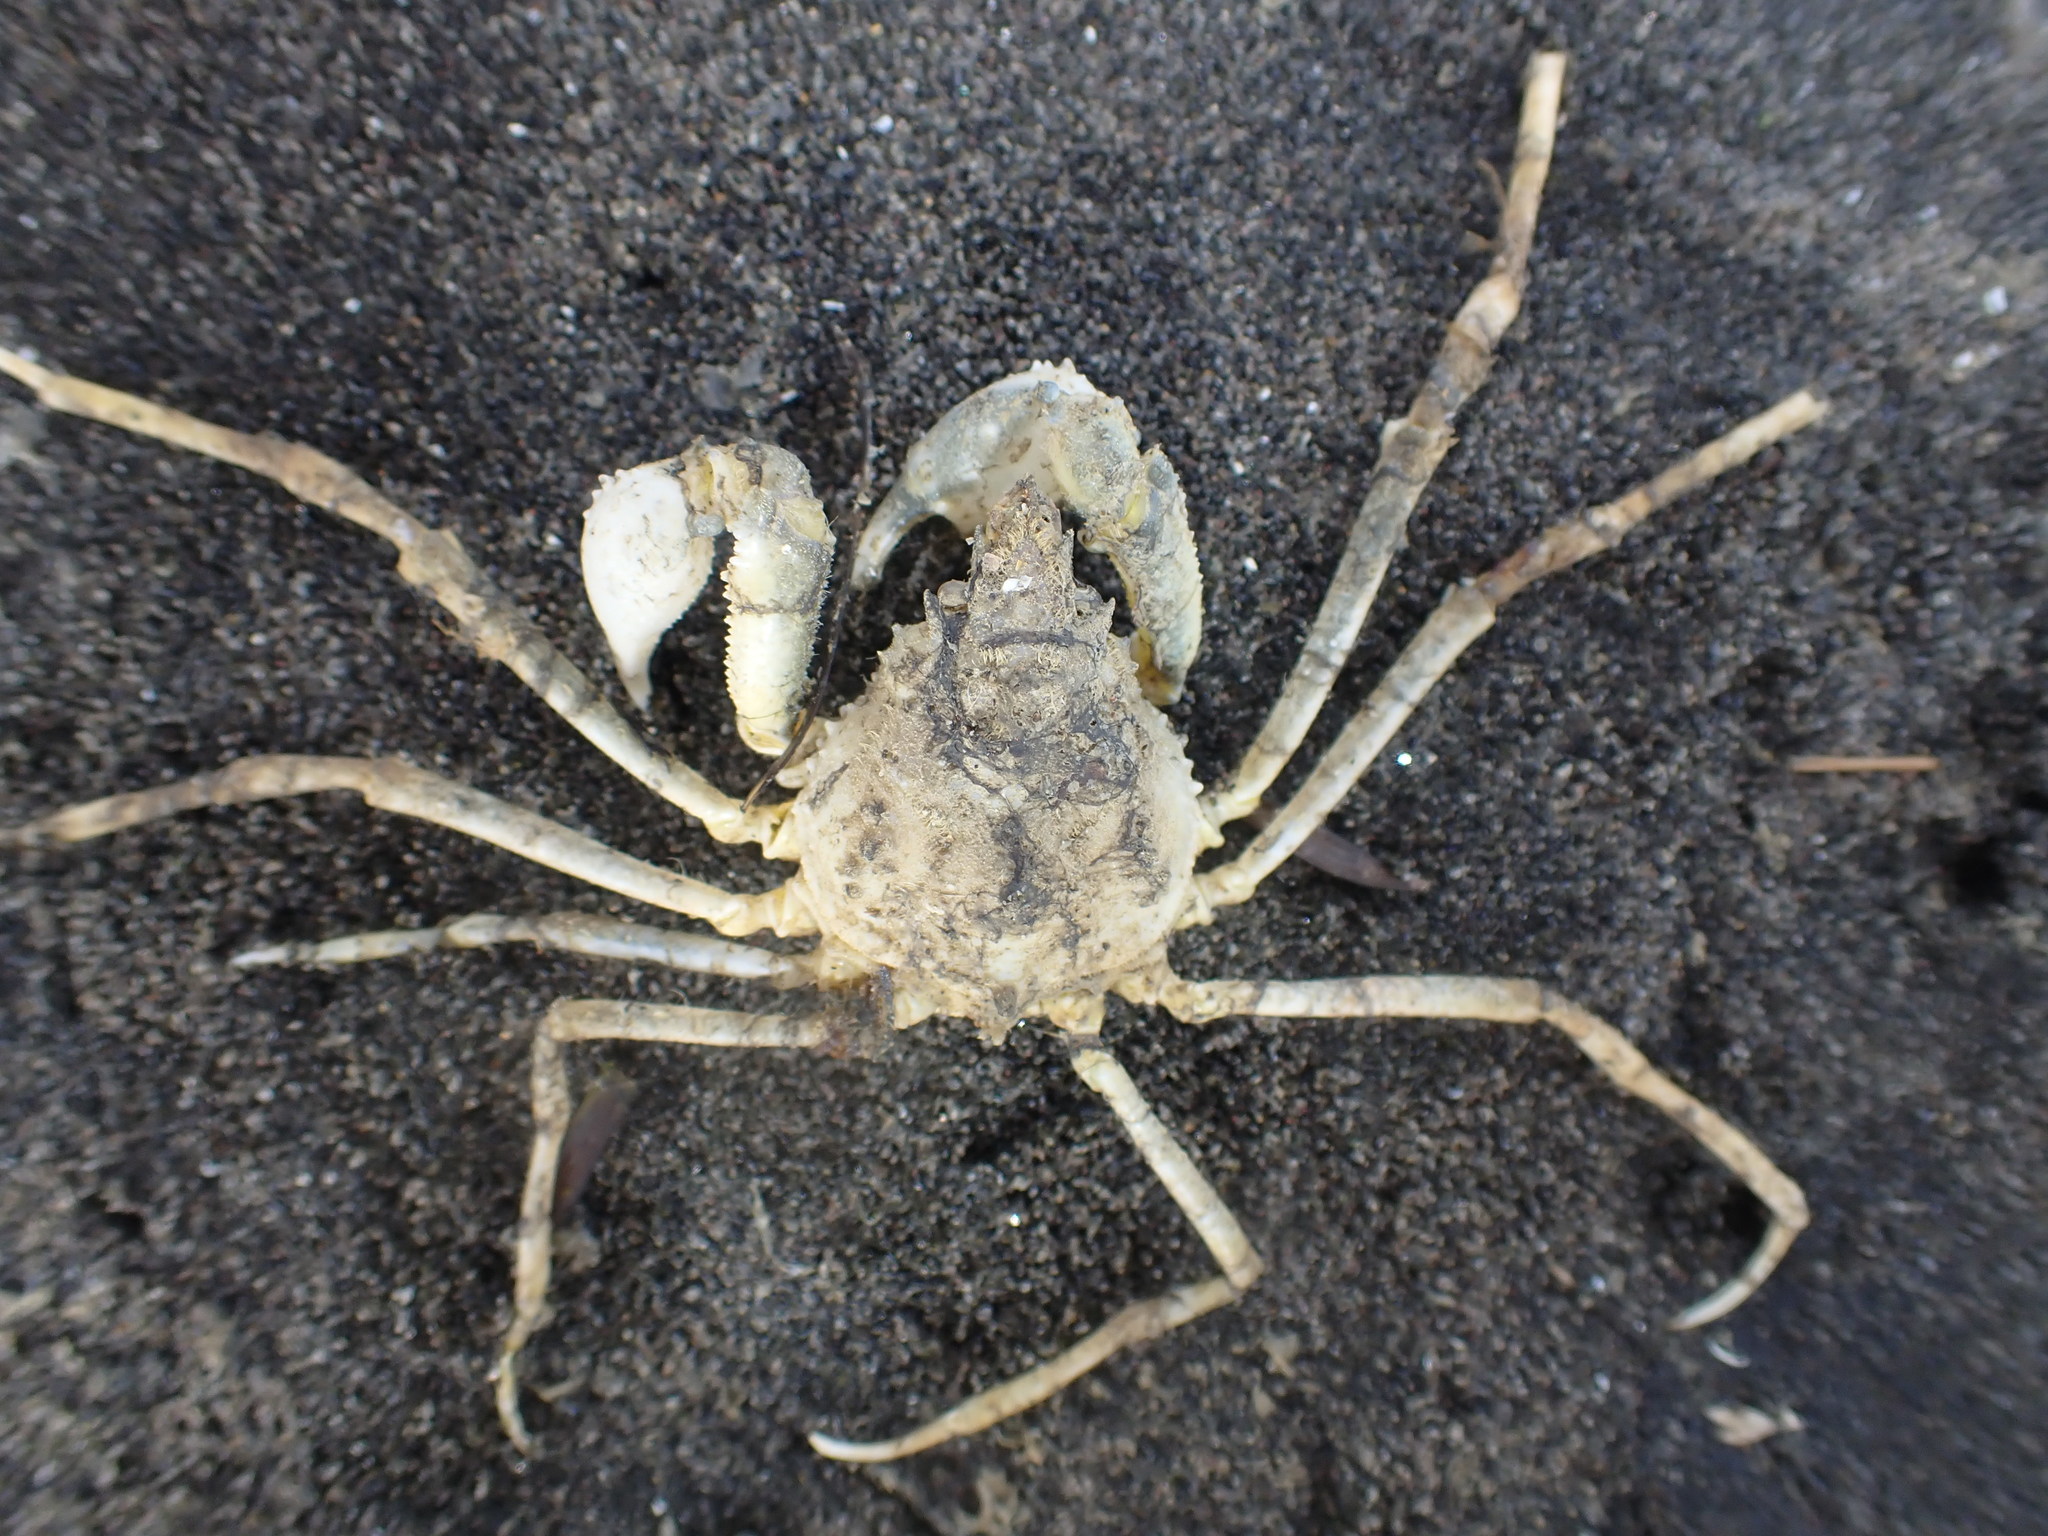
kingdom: Animalia
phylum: Arthropoda
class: Malacostraca
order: Decapoda
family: Inachoididae
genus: Pyromaia
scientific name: Pyromaia tuberculata
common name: Tuberculate pear crab
